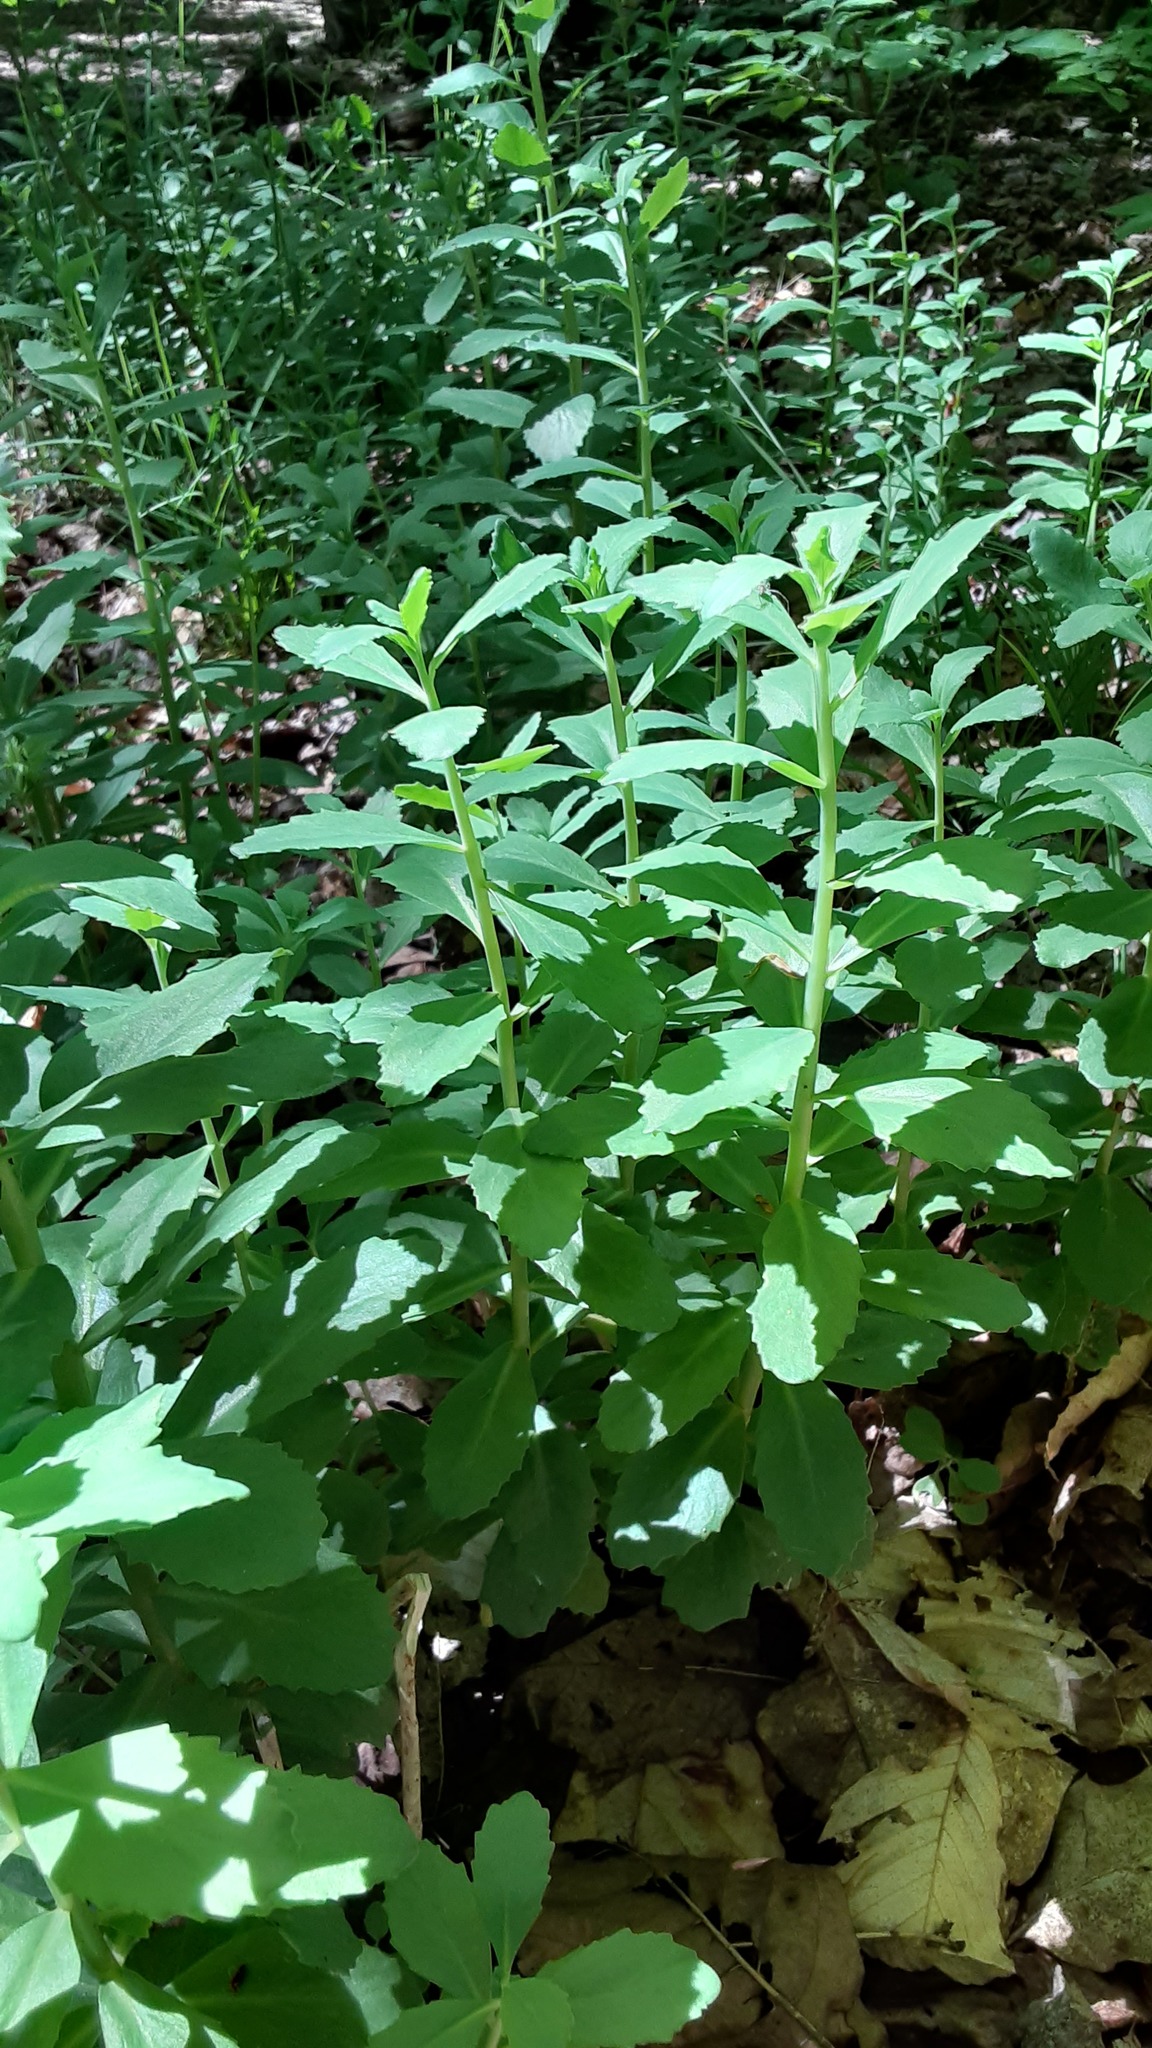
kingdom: Plantae
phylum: Tracheophyta
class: Magnoliopsida
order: Saxifragales
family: Crassulaceae
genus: Hylotelephium
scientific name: Hylotelephium telephium
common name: Live-forever
